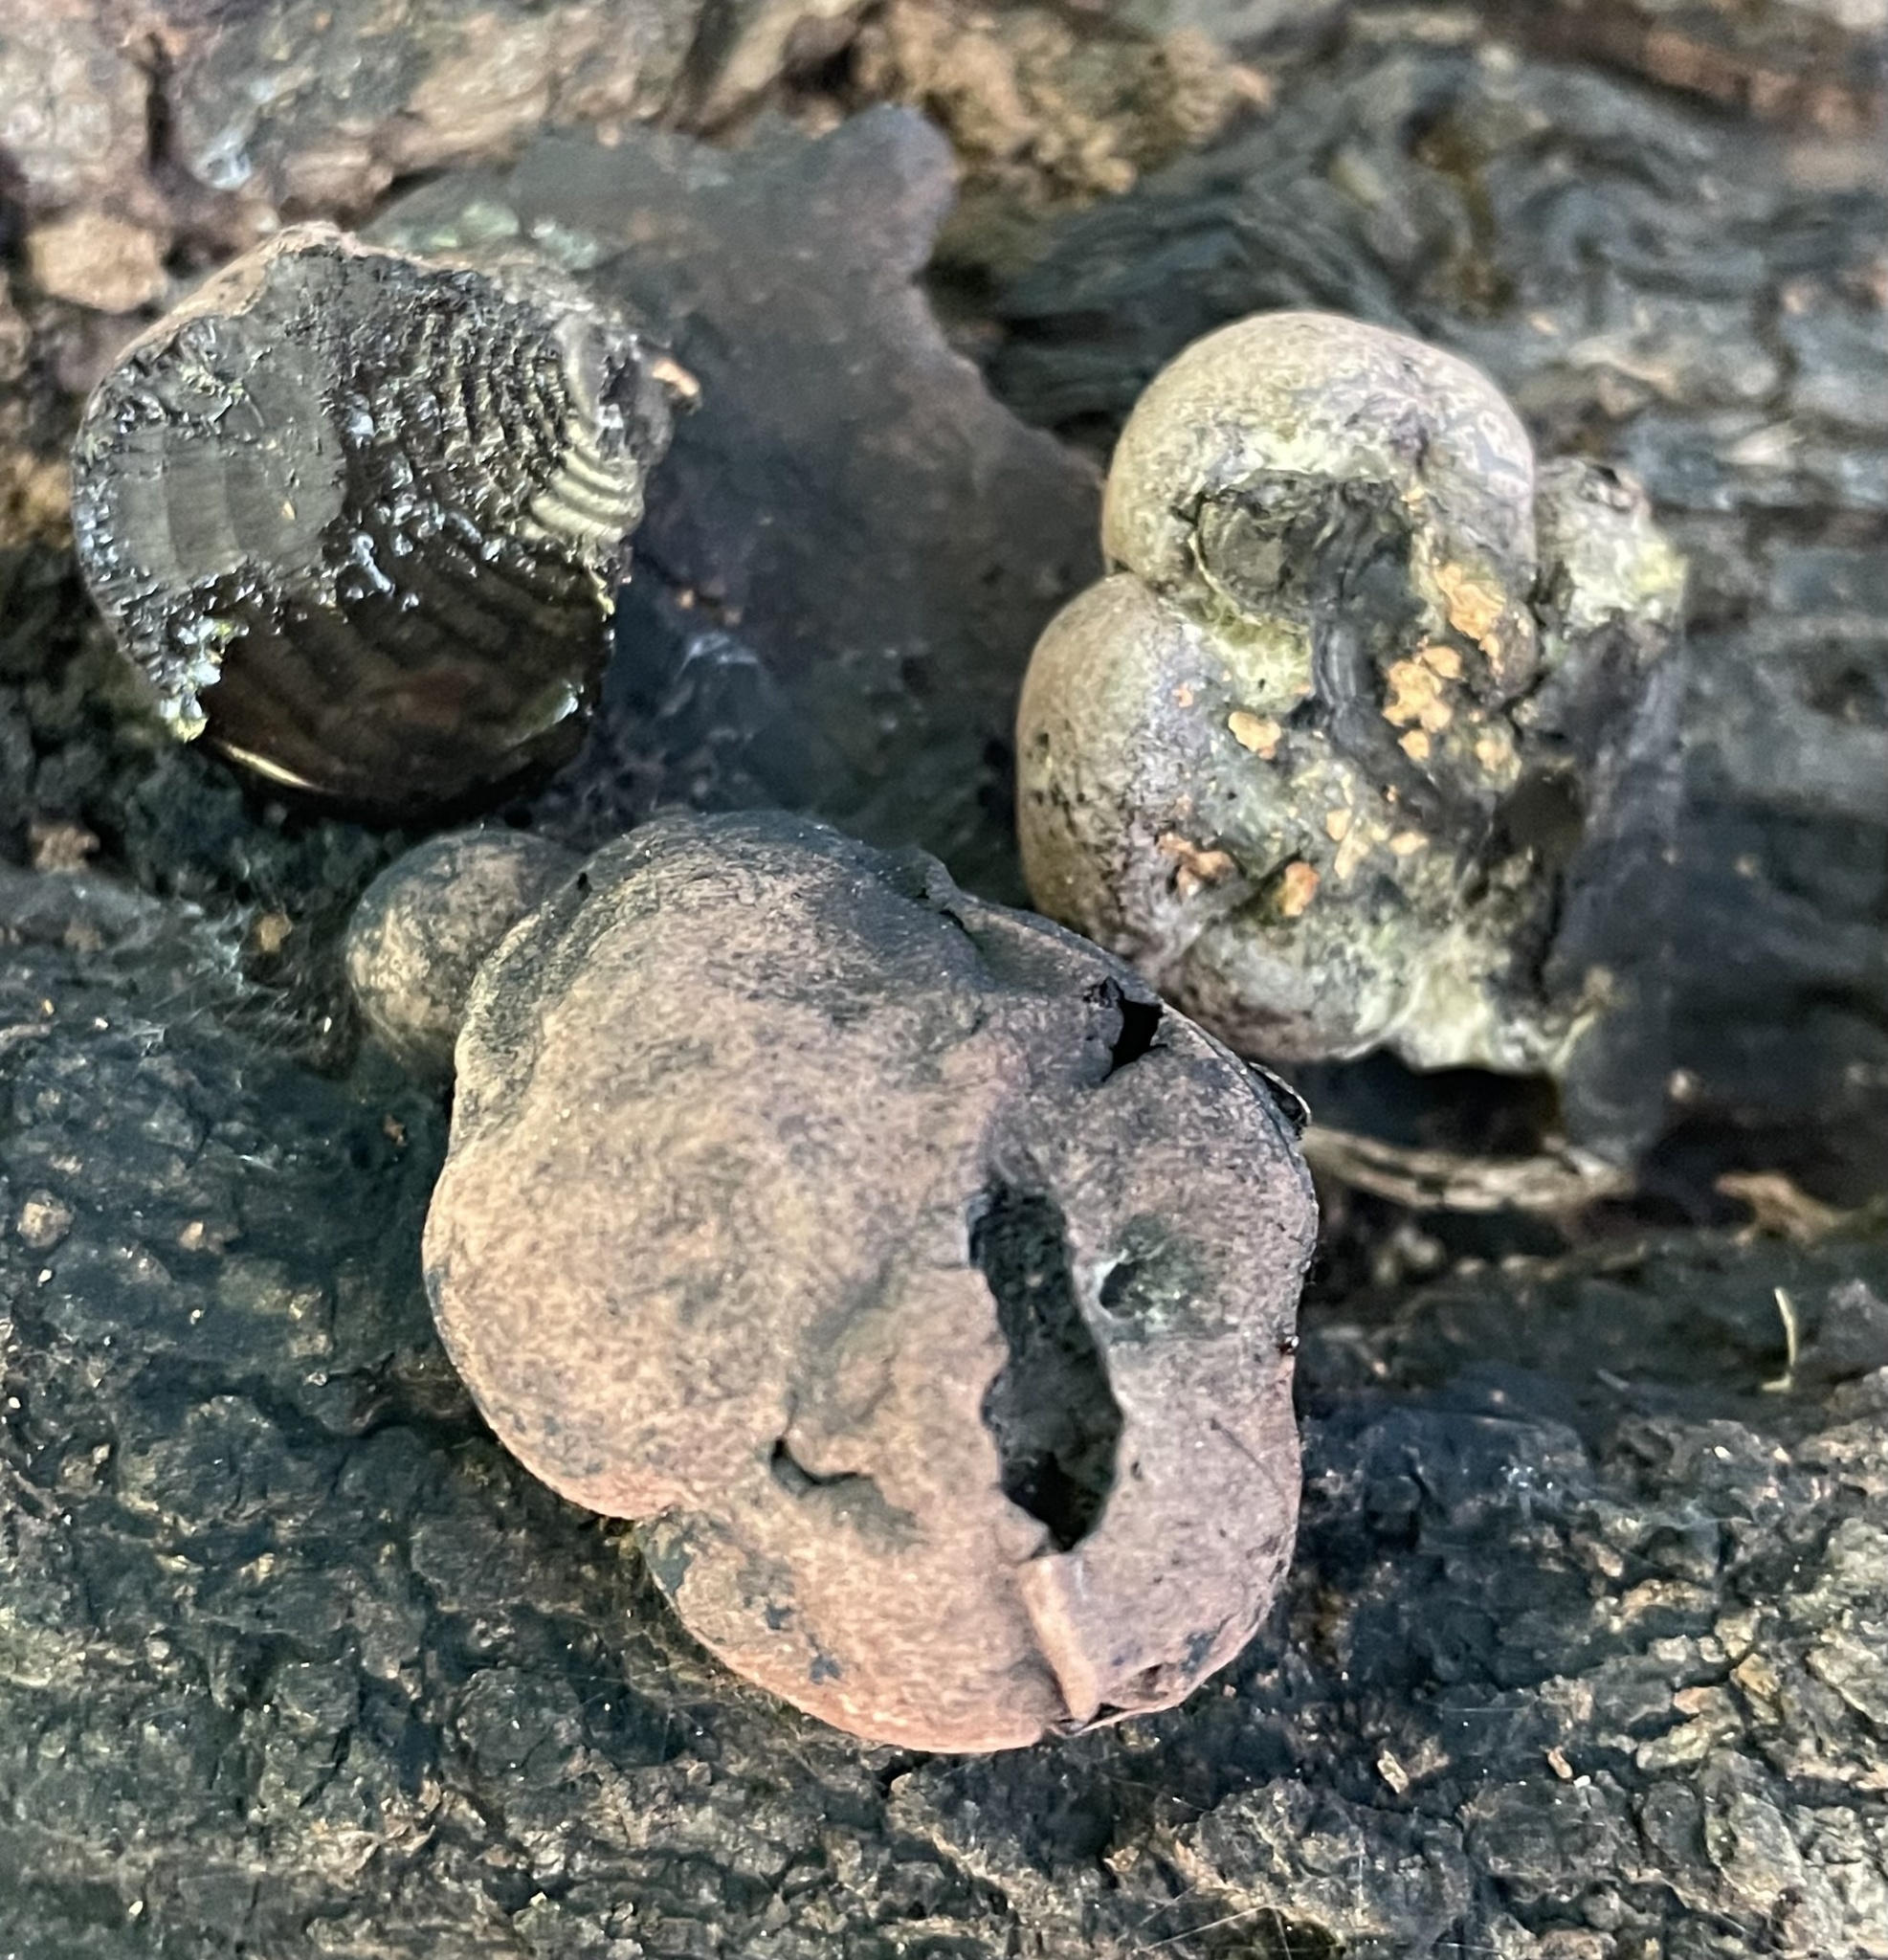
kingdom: Fungi
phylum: Ascomycota
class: Sordariomycetes
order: Xylariales
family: Hypoxylaceae
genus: Daldinia
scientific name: Daldinia childiae
